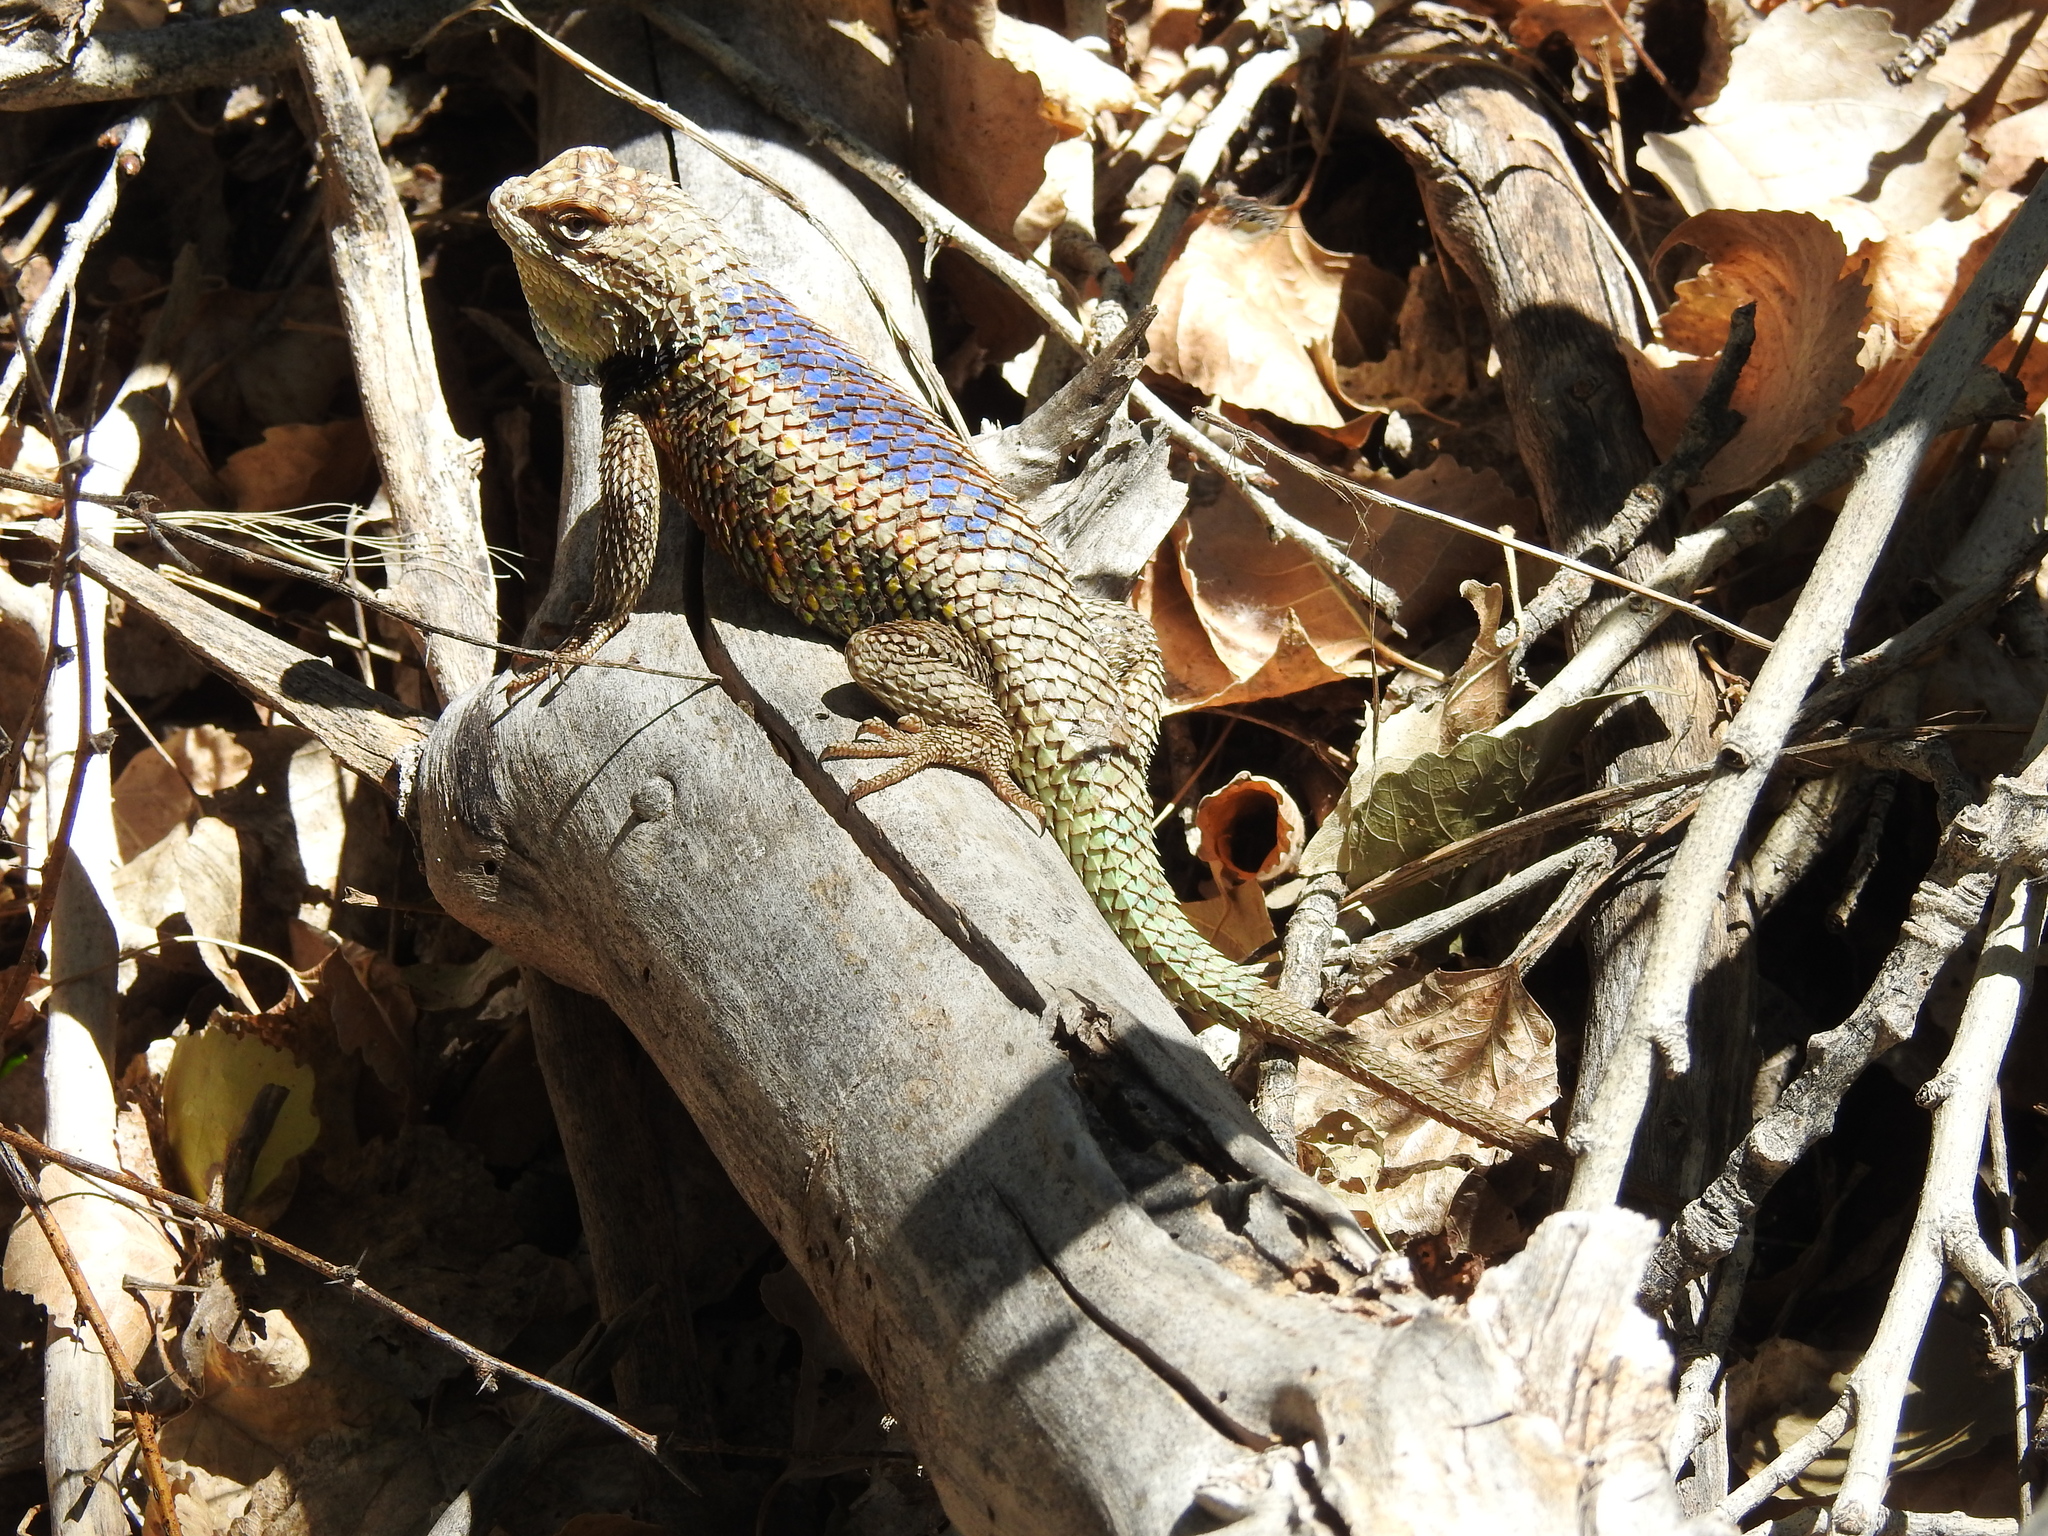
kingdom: Animalia
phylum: Chordata
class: Squamata
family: Phrynosomatidae
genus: Sceloporus
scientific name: Sceloporus magister
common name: Desert spiny lizard
